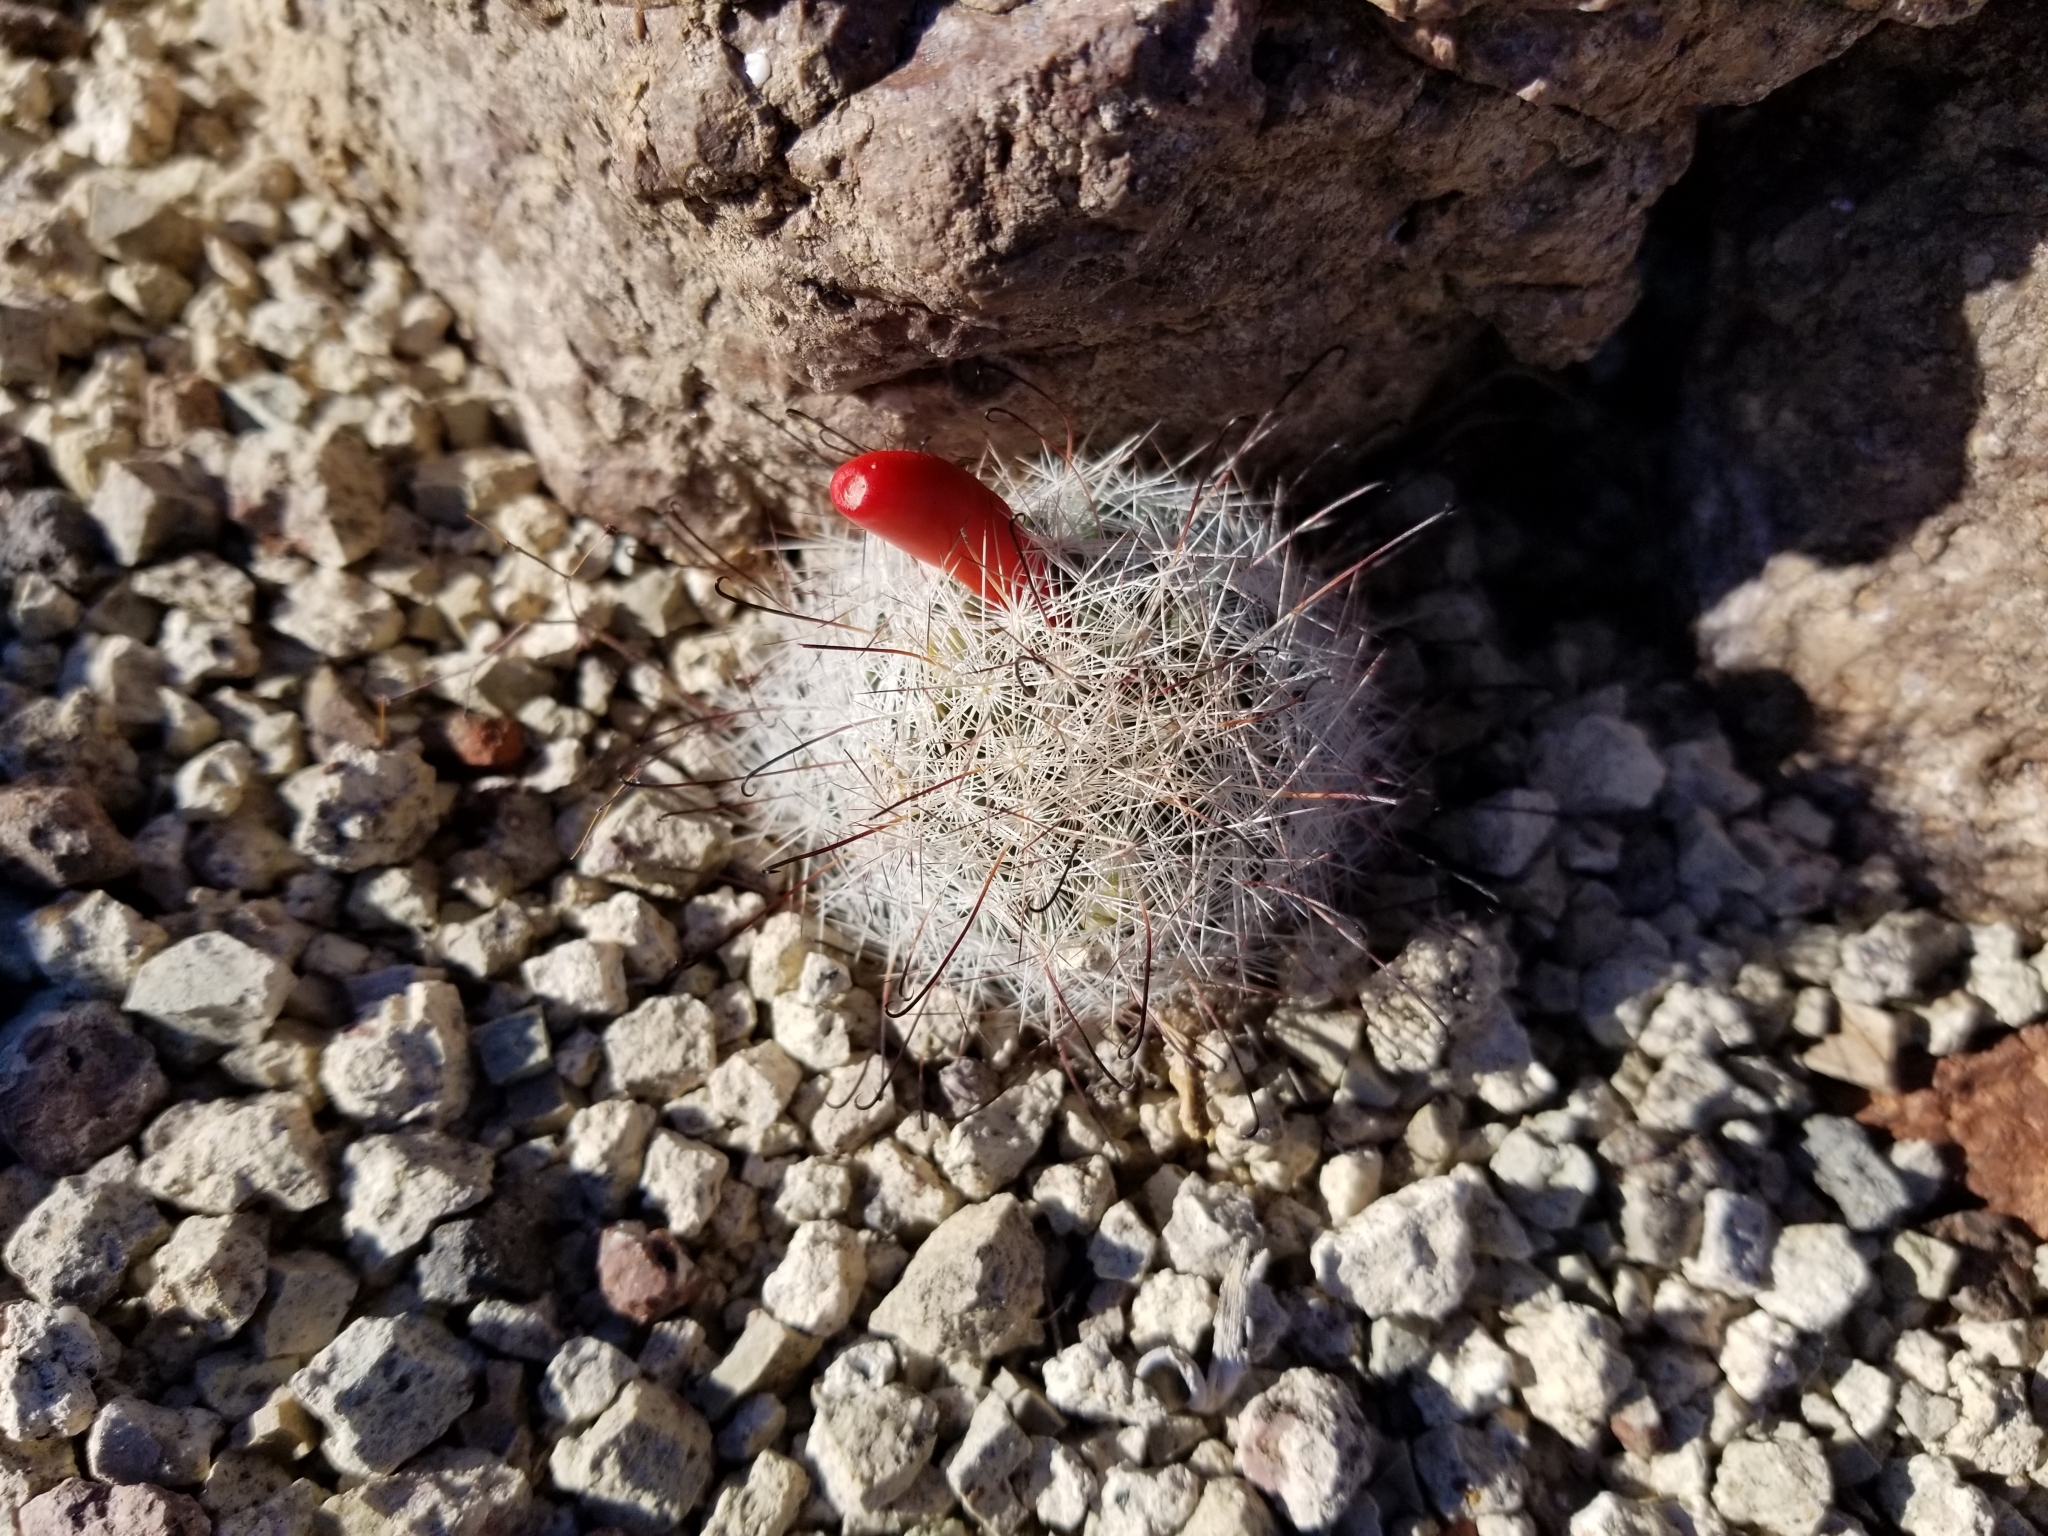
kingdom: Plantae
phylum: Tracheophyta
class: Magnoliopsida
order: Caryophyllales
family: Cactaceae
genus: Cochemiea
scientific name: Cochemiea tetrancistra
